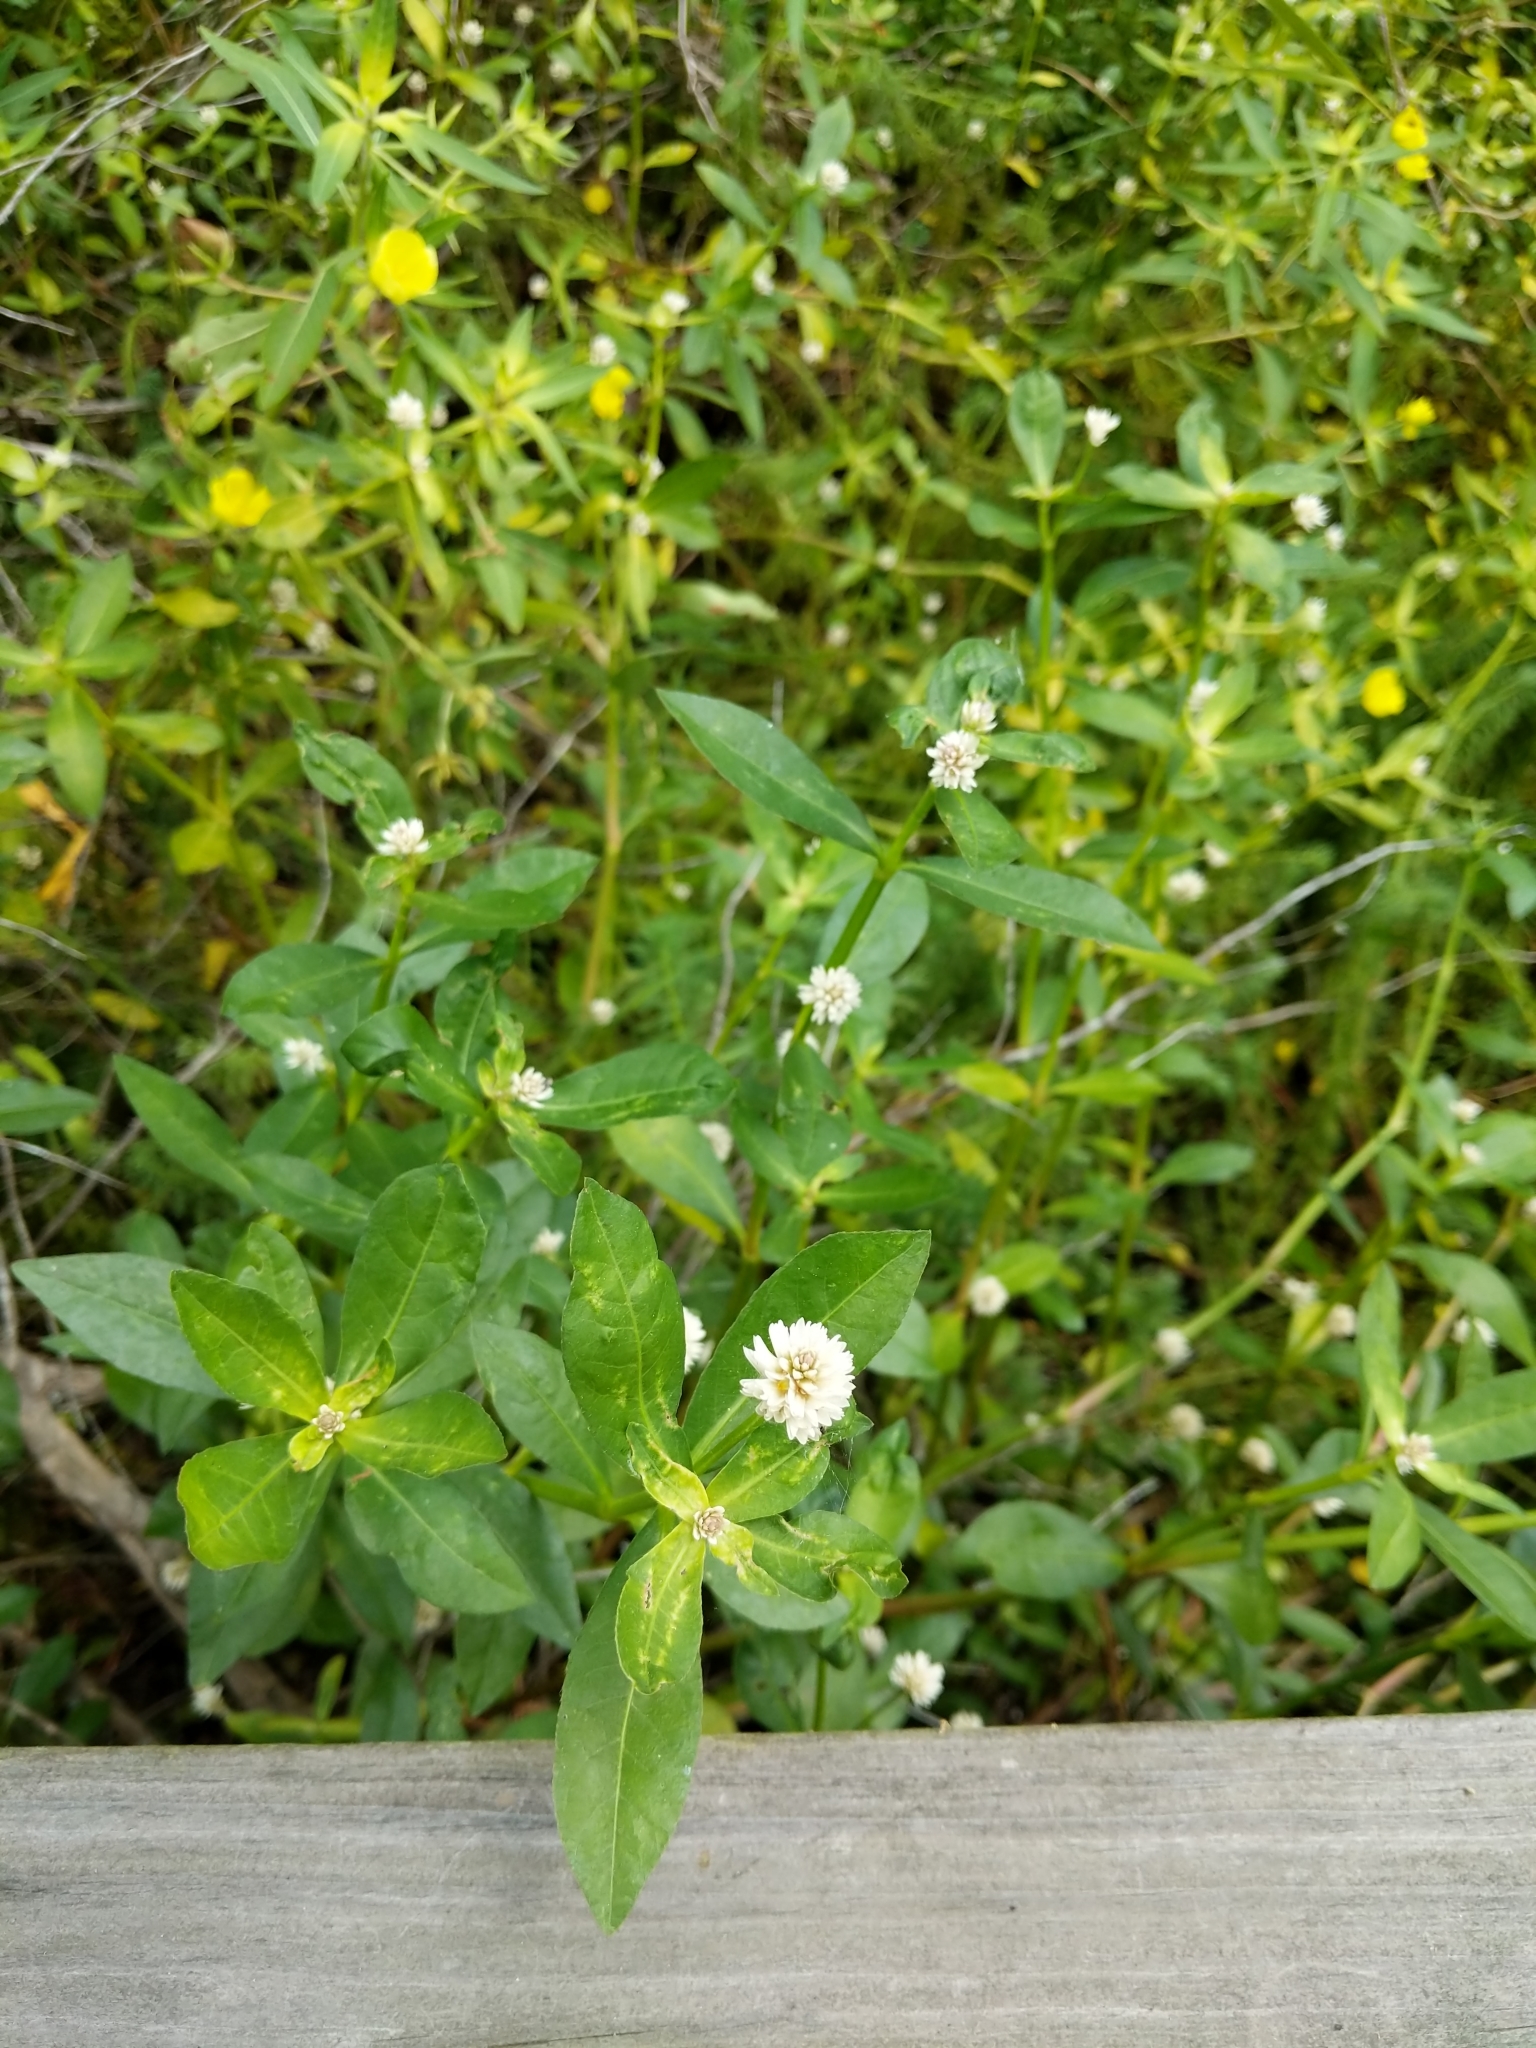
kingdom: Plantae
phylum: Tracheophyta
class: Magnoliopsida
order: Caryophyllales
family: Amaranthaceae
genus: Alternanthera
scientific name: Alternanthera philoxeroides
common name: Alligatorweed
